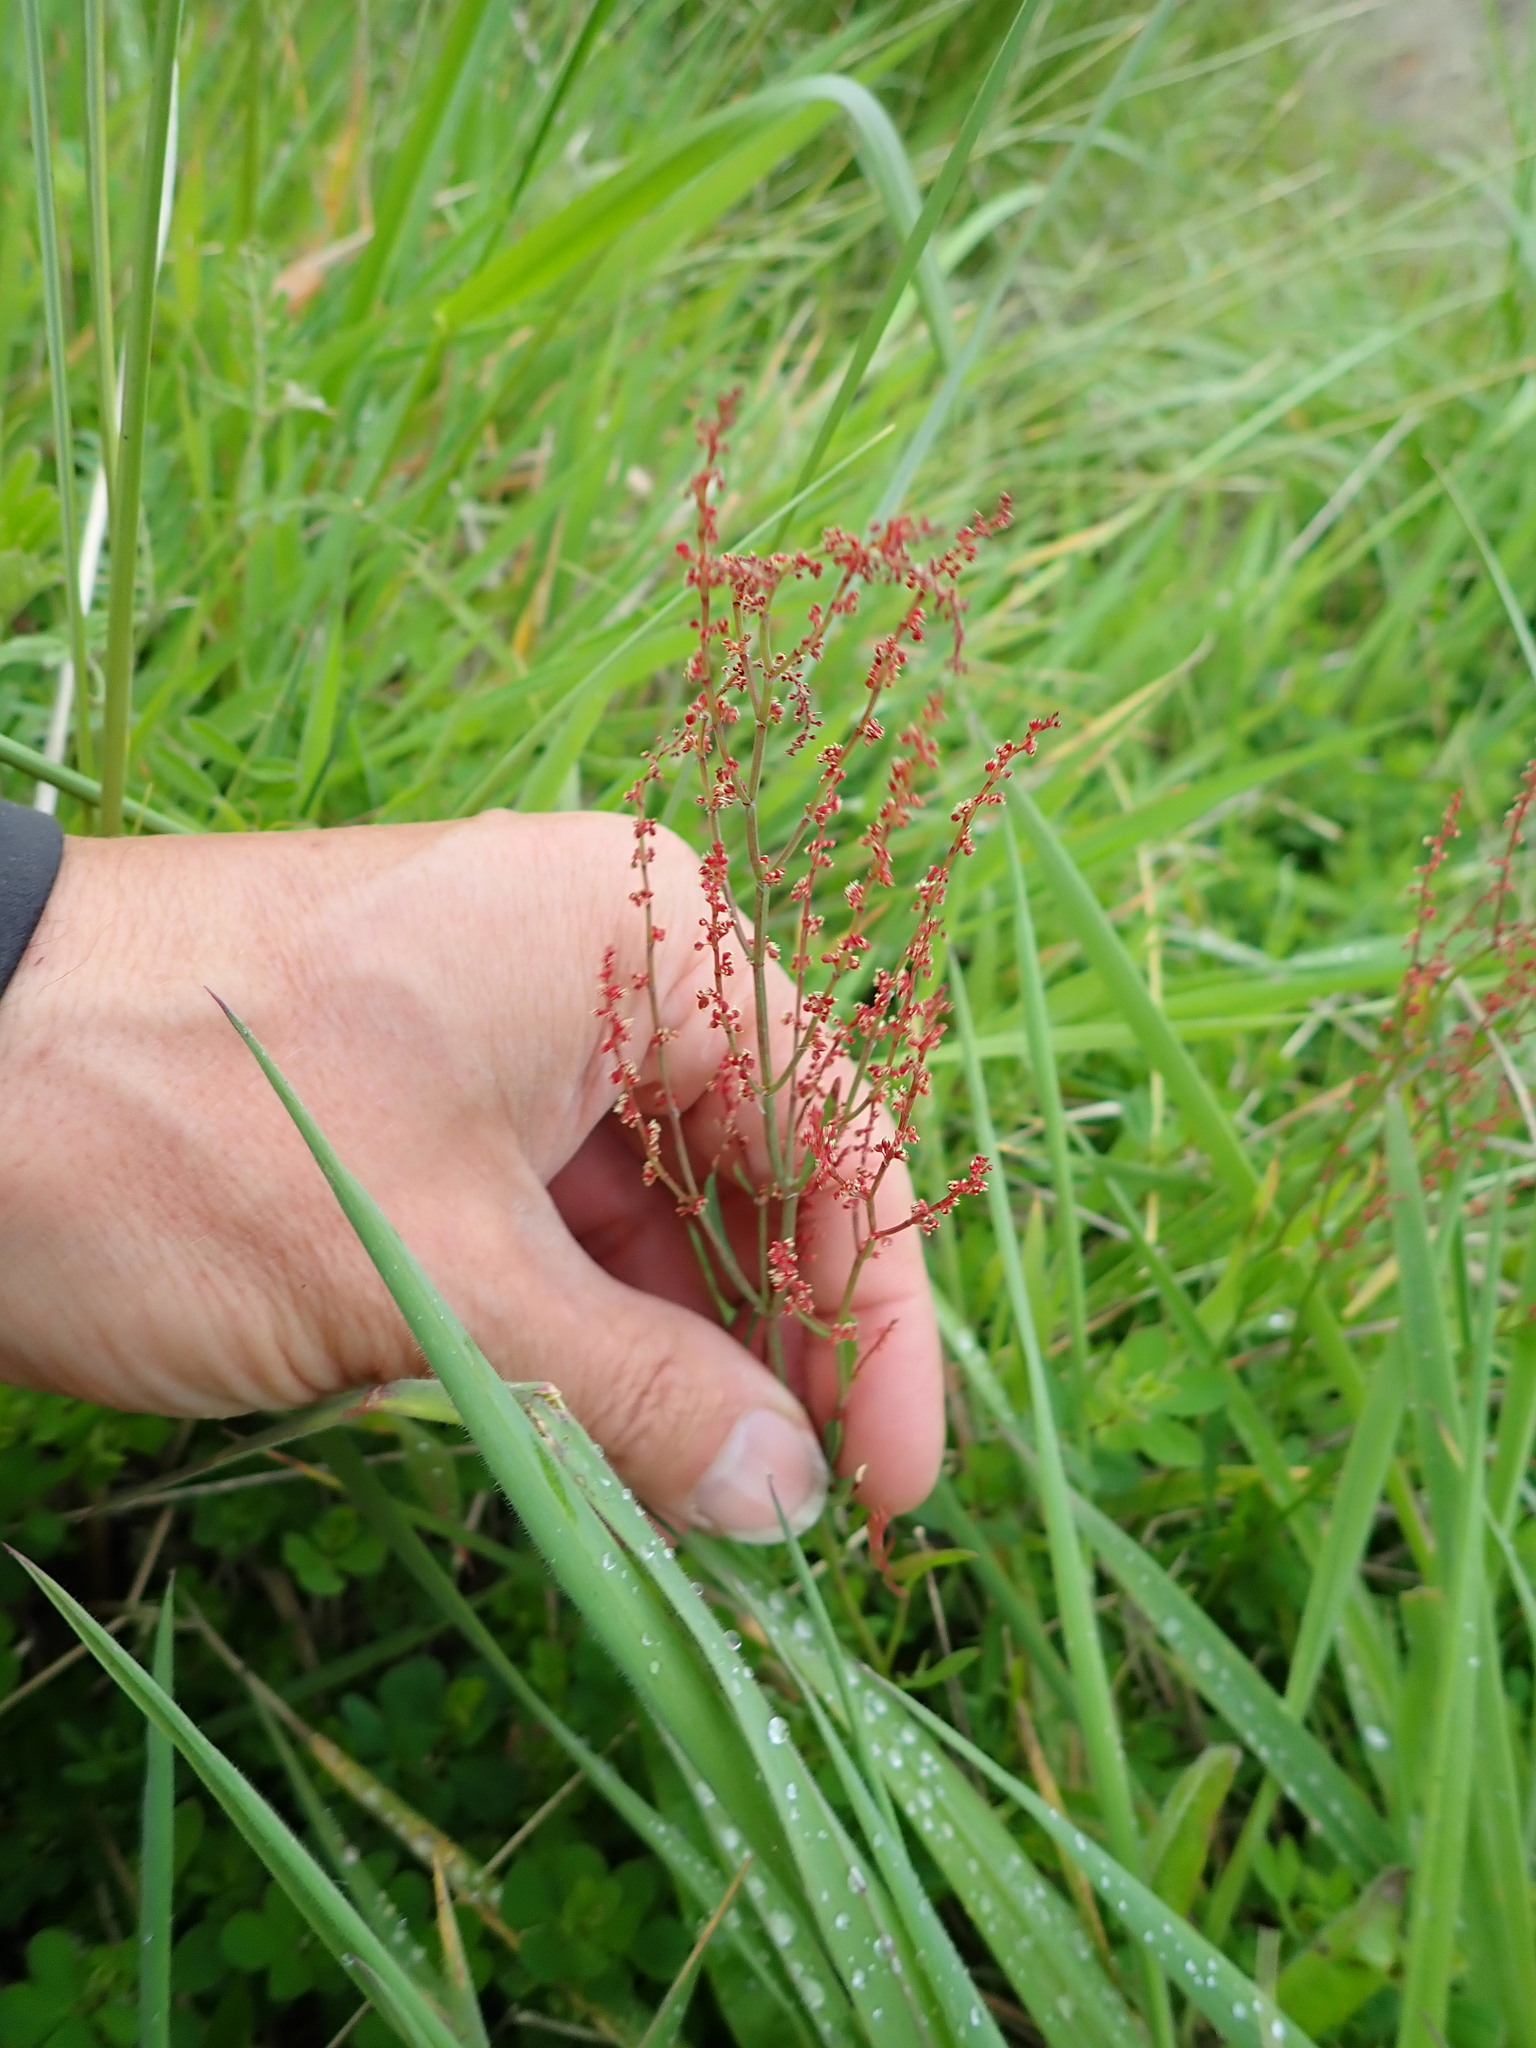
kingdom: Plantae
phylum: Tracheophyta
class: Magnoliopsida
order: Caryophyllales
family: Polygonaceae
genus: Rumex
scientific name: Rumex acetosella
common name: Common sheep sorrel
